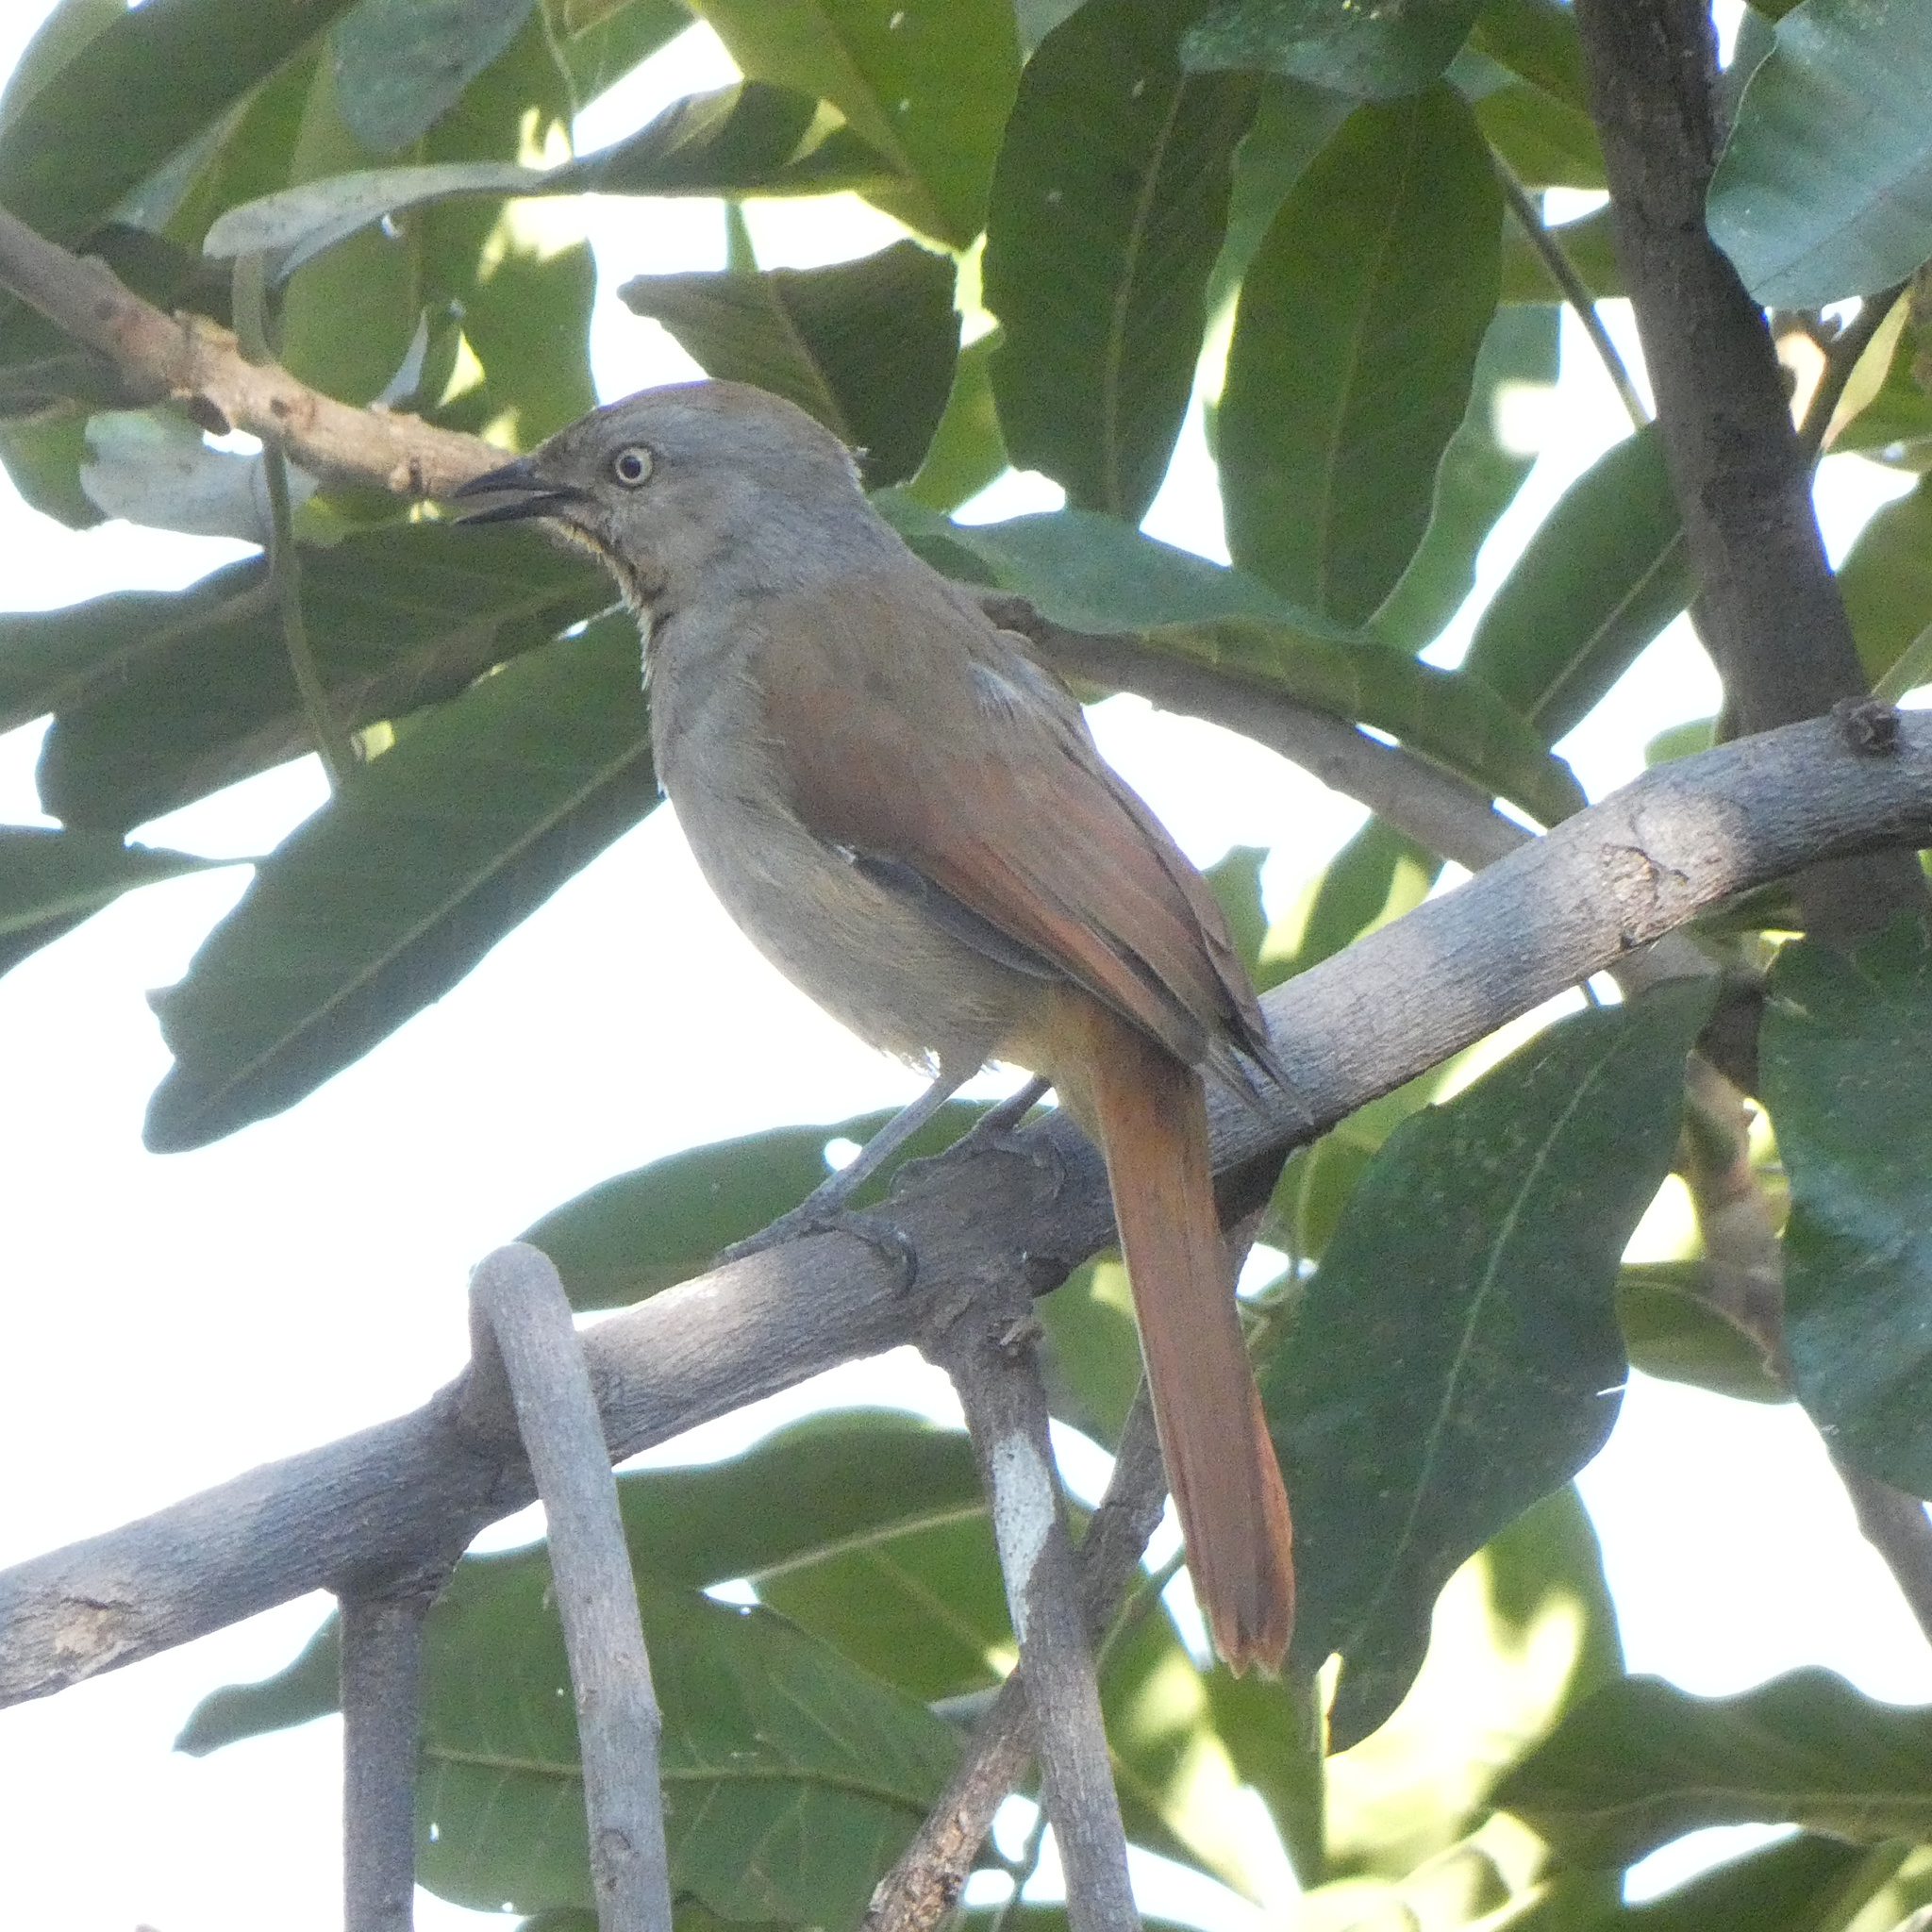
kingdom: Animalia
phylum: Chordata
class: Aves
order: Passeriformes
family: Muscicapidae
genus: Cichladusa
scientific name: Cichladusa arquata
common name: Collared palm thrush
